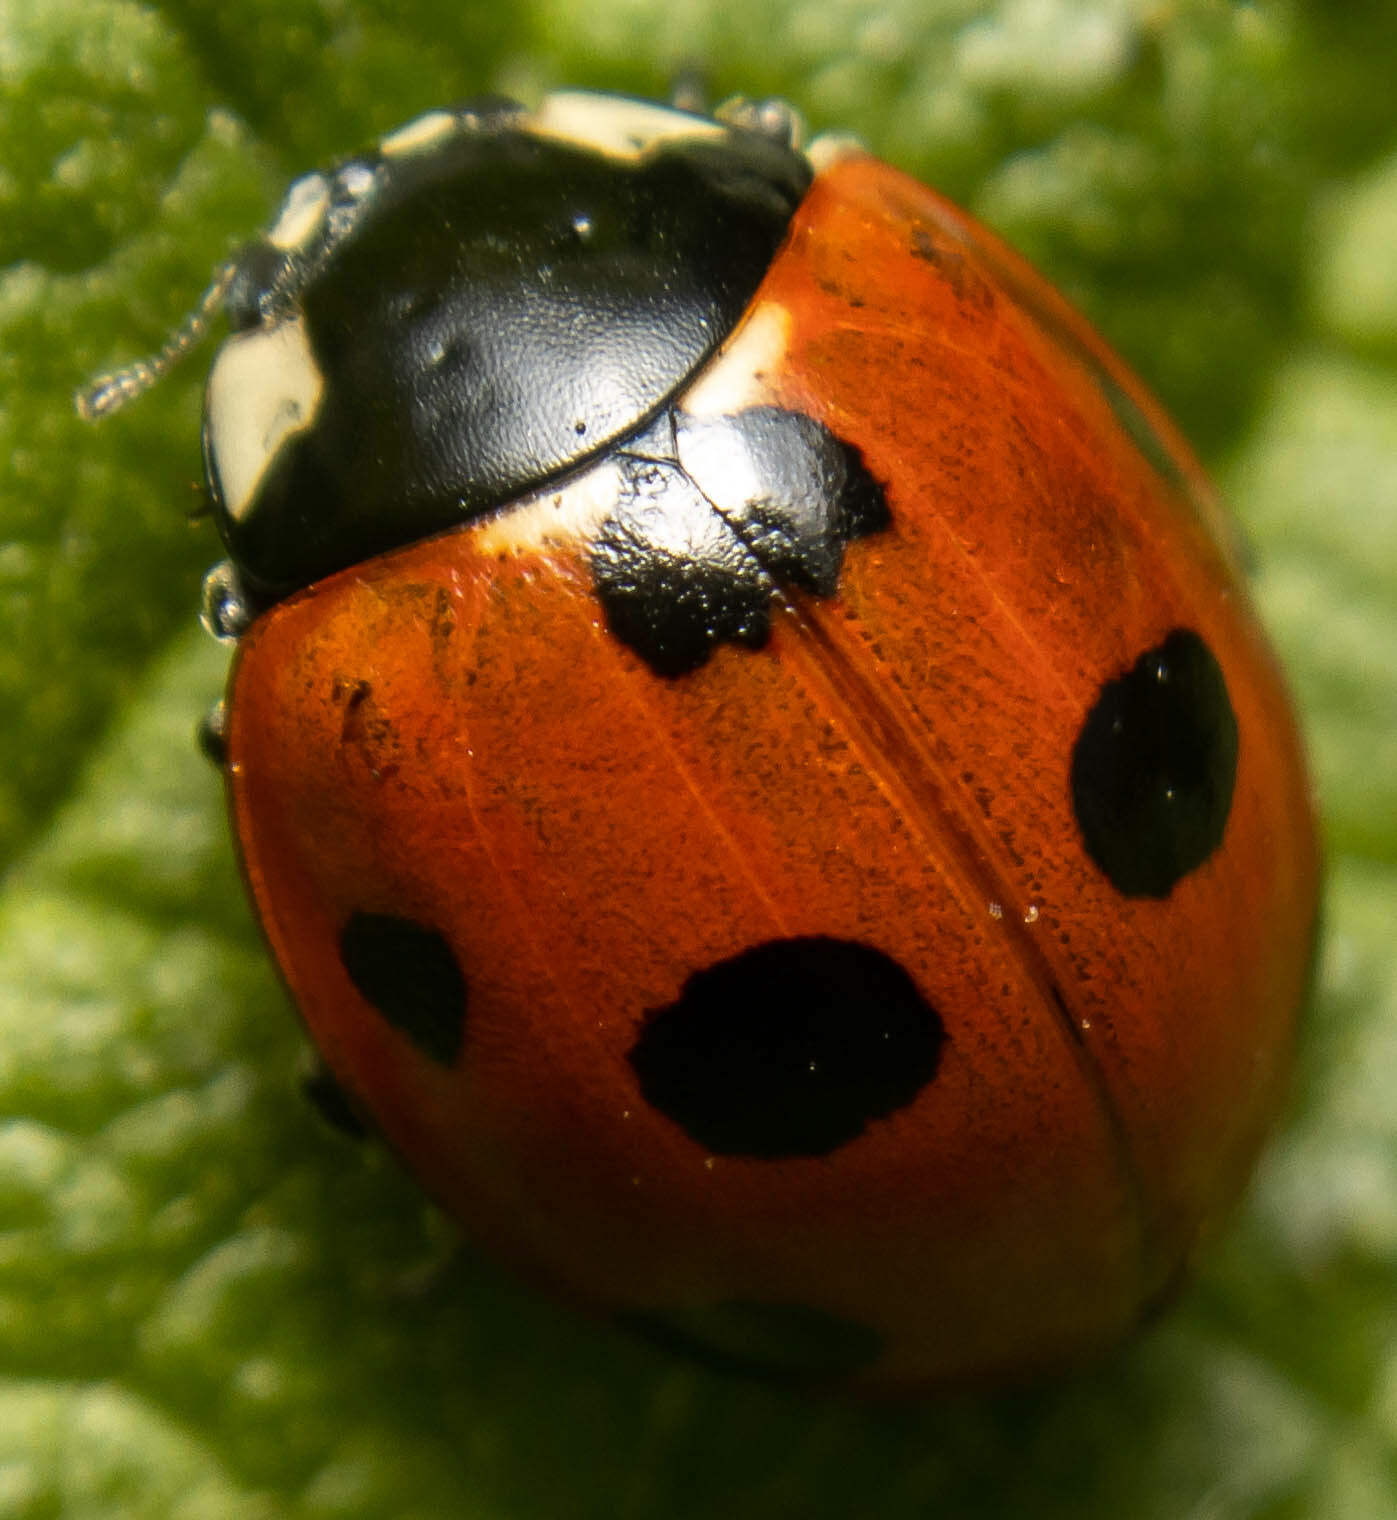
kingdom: Animalia
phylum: Arthropoda
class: Insecta
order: Coleoptera
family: Coccinellidae
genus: Coccinella
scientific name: Coccinella septempunctata
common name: Sevenspotted lady beetle
